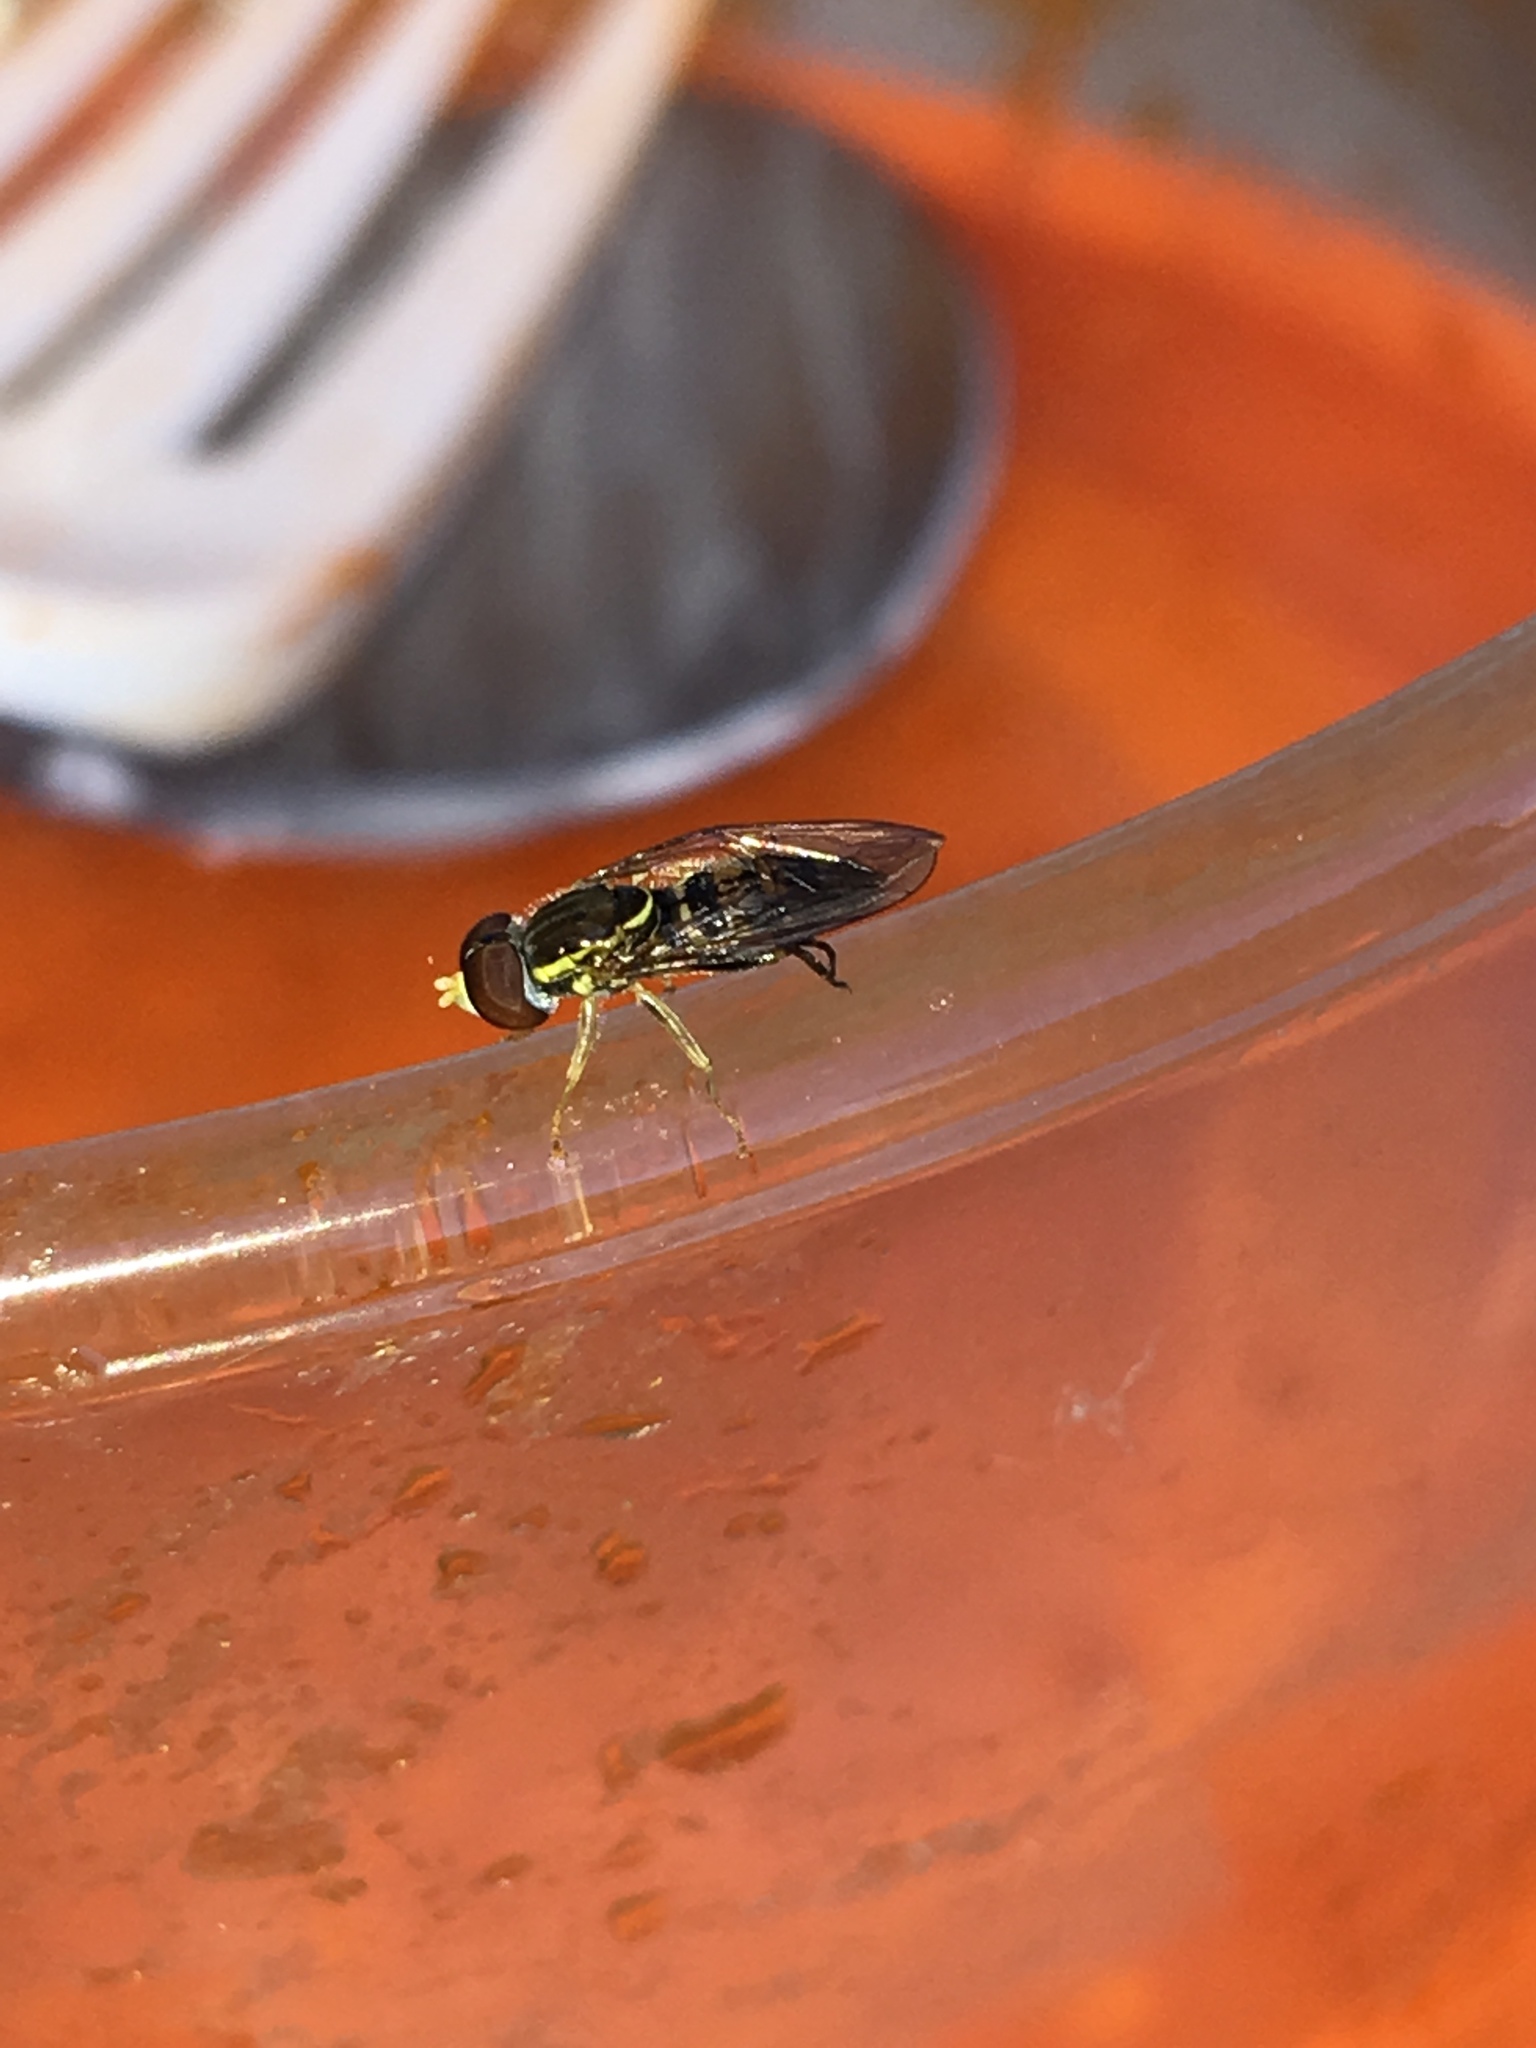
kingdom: Animalia
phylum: Arthropoda
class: Insecta
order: Diptera
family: Syrphidae
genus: Toxomerus
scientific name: Toxomerus geminatus
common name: Eastern calligrapher
